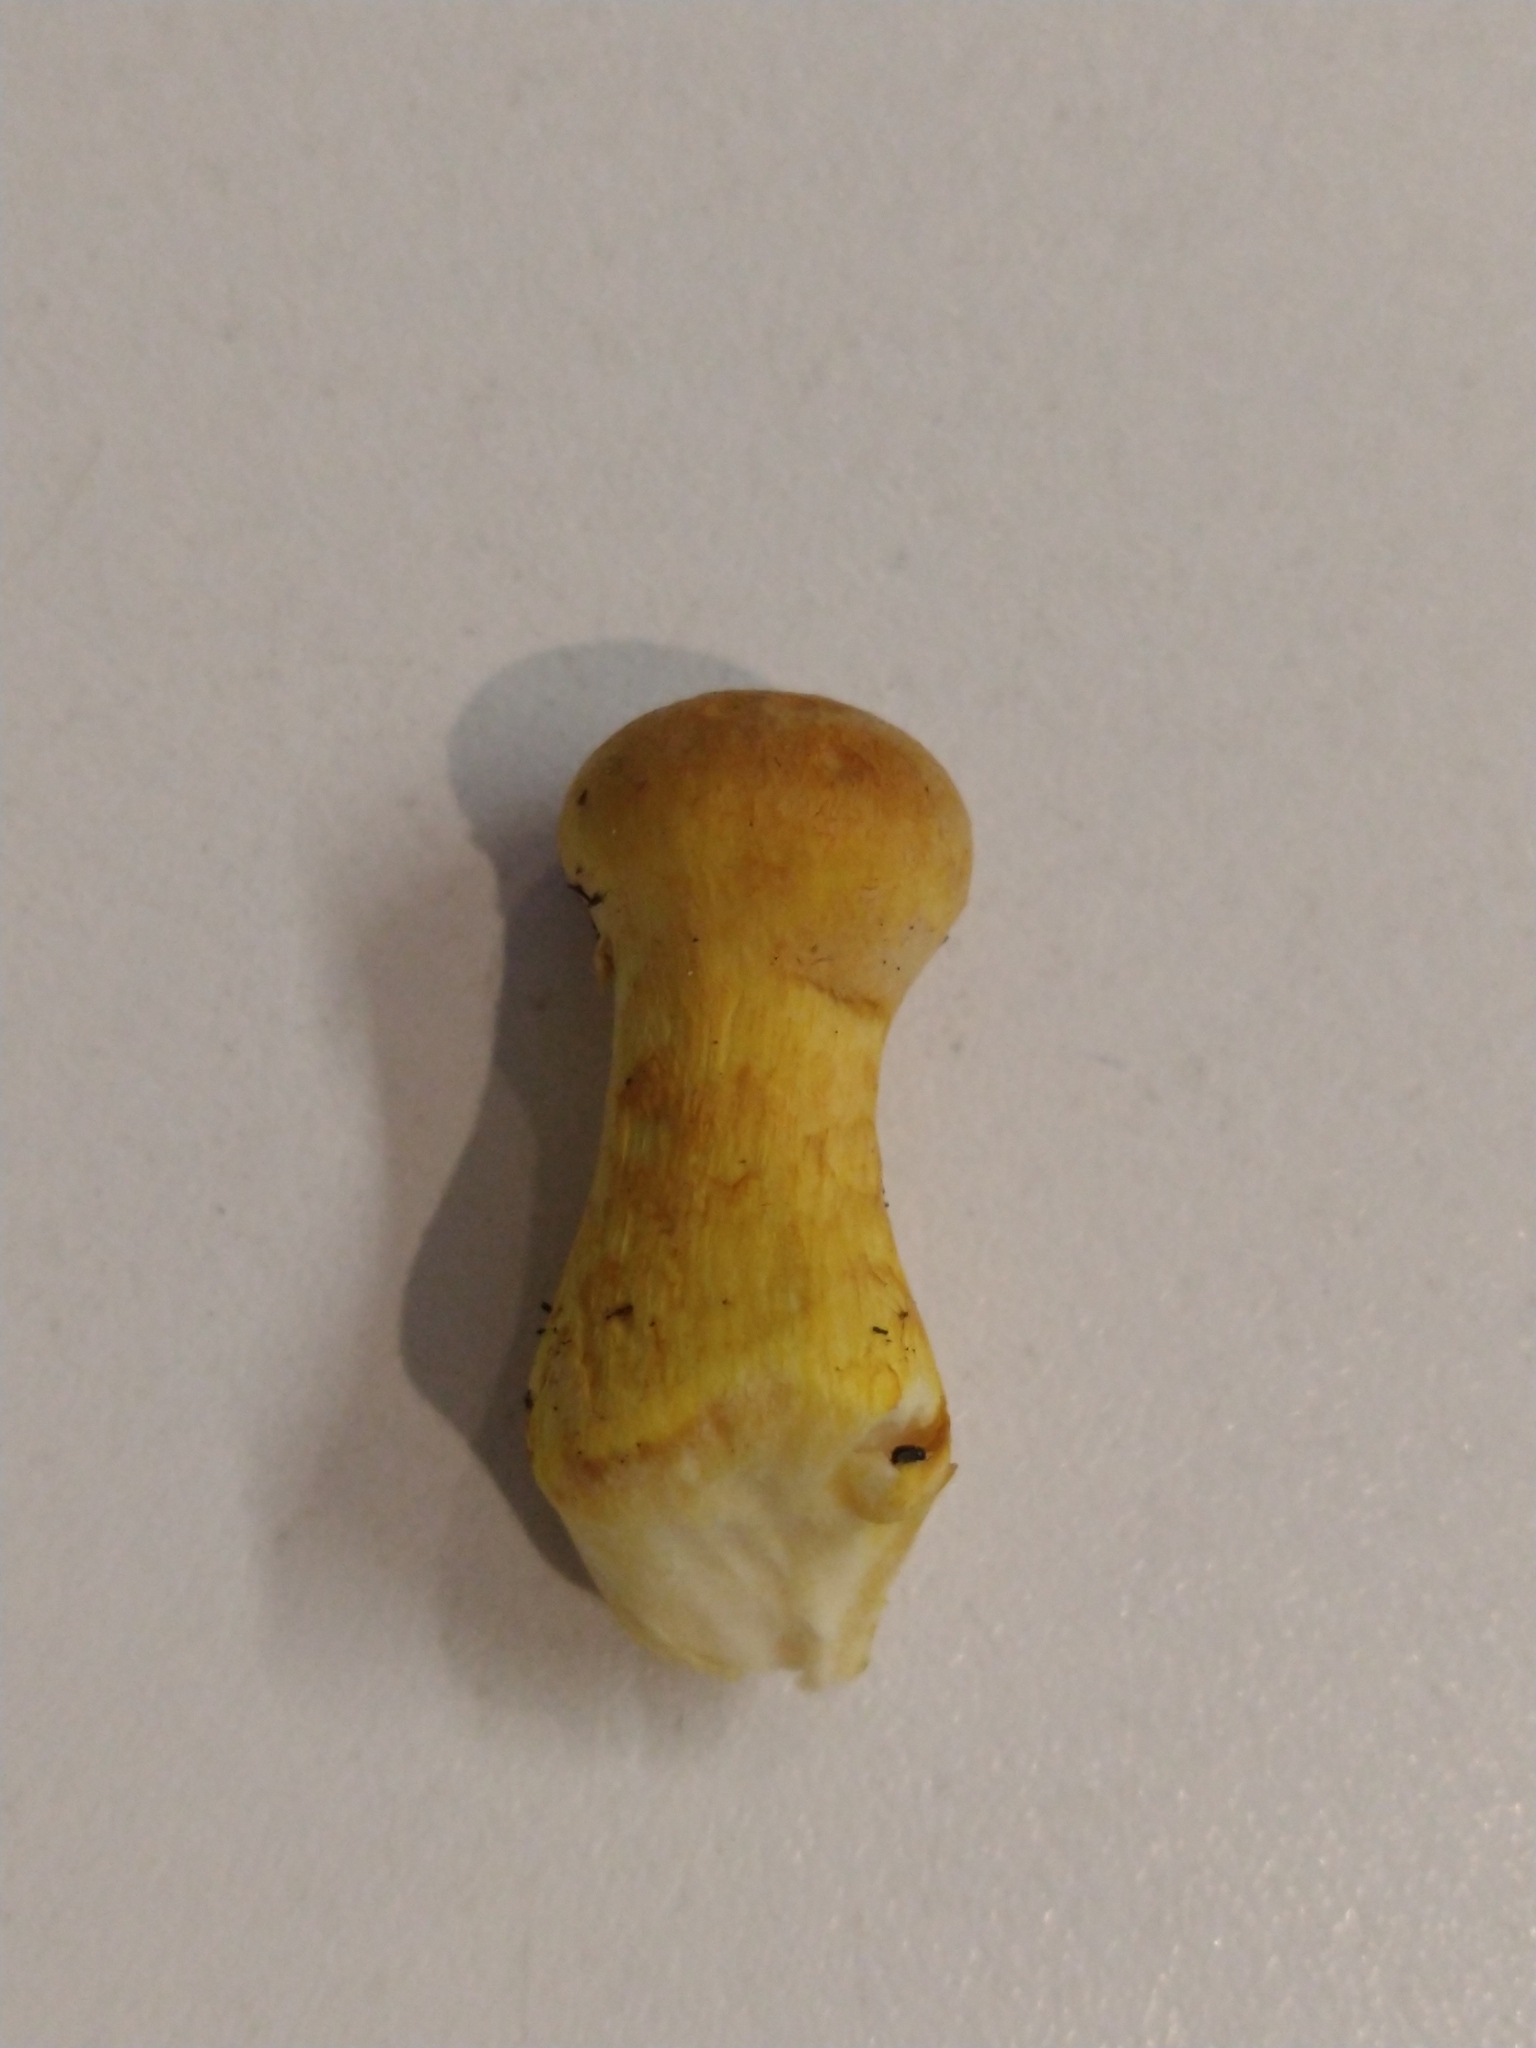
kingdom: Fungi
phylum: Basidiomycota
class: Agaricomycetes
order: Agaricales
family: Hymenogastraceae
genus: Gymnopilus
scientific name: Gymnopilus junonius
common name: Spectacular rustgill
